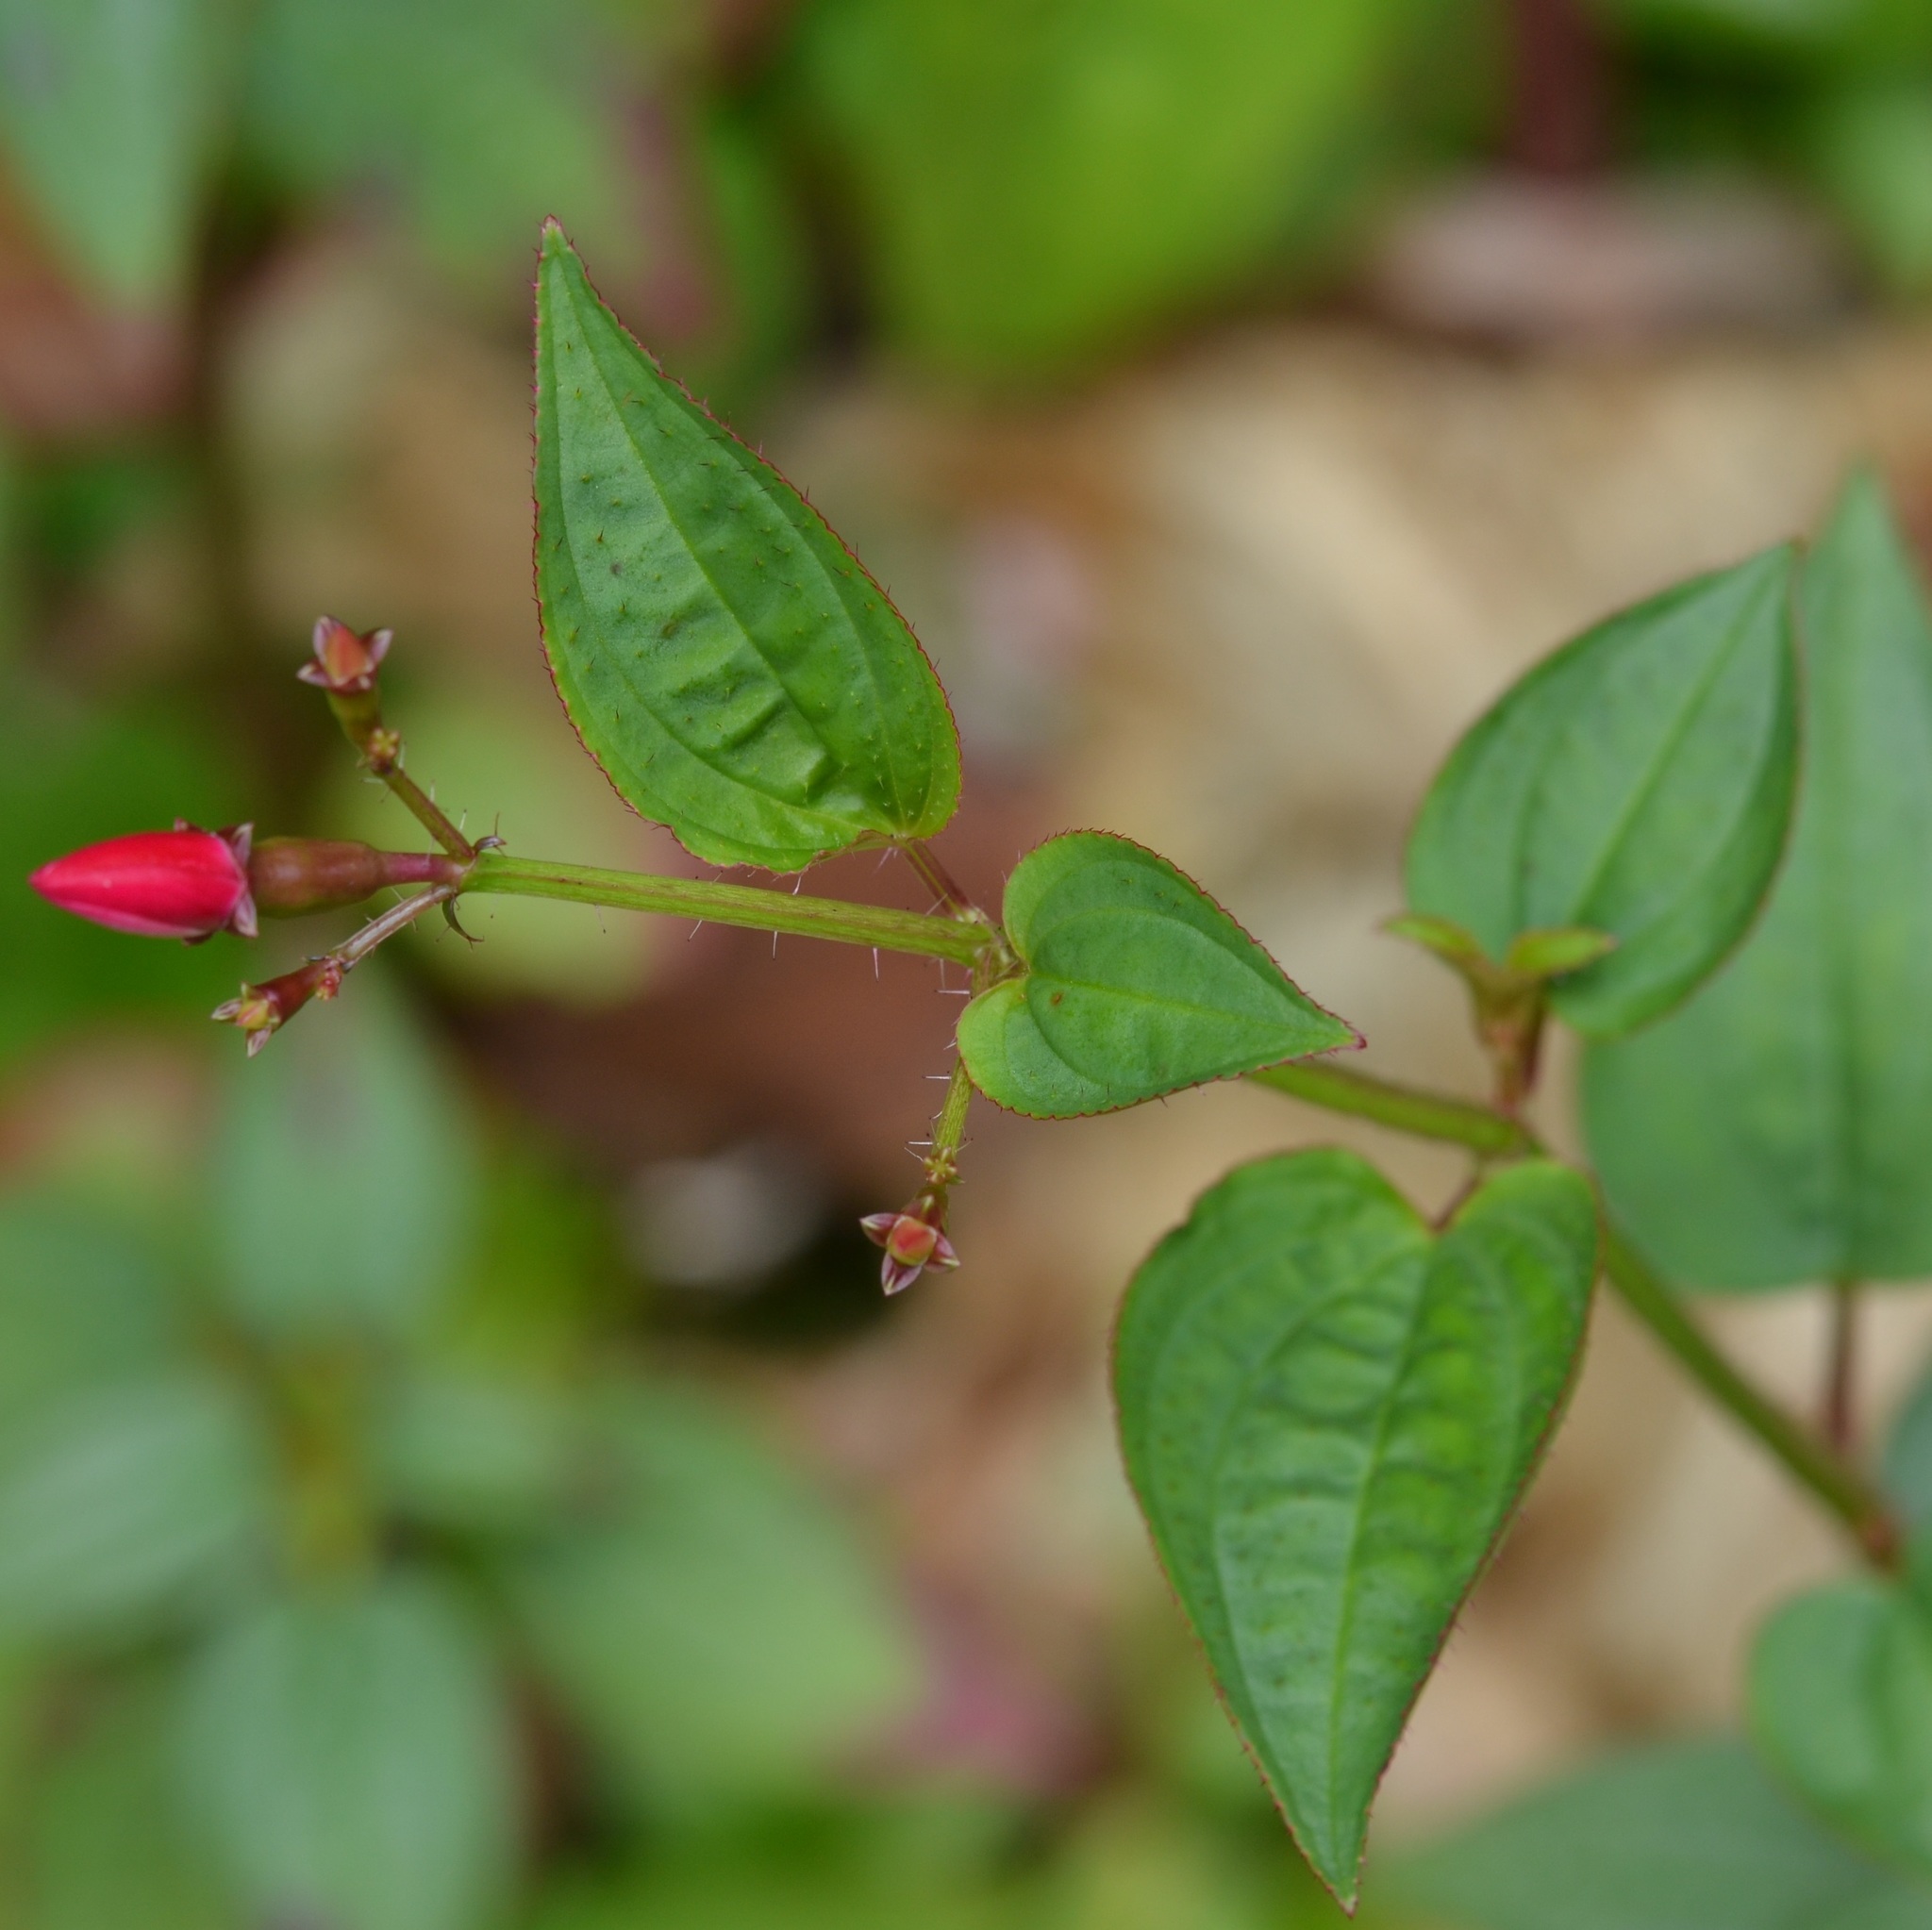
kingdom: Plantae
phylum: Tracheophyta
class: Magnoliopsida
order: Myrtales
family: Melastomataceae
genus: Arthrostemma
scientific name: Arthrostemma ciliatum
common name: Everblooming eavender
